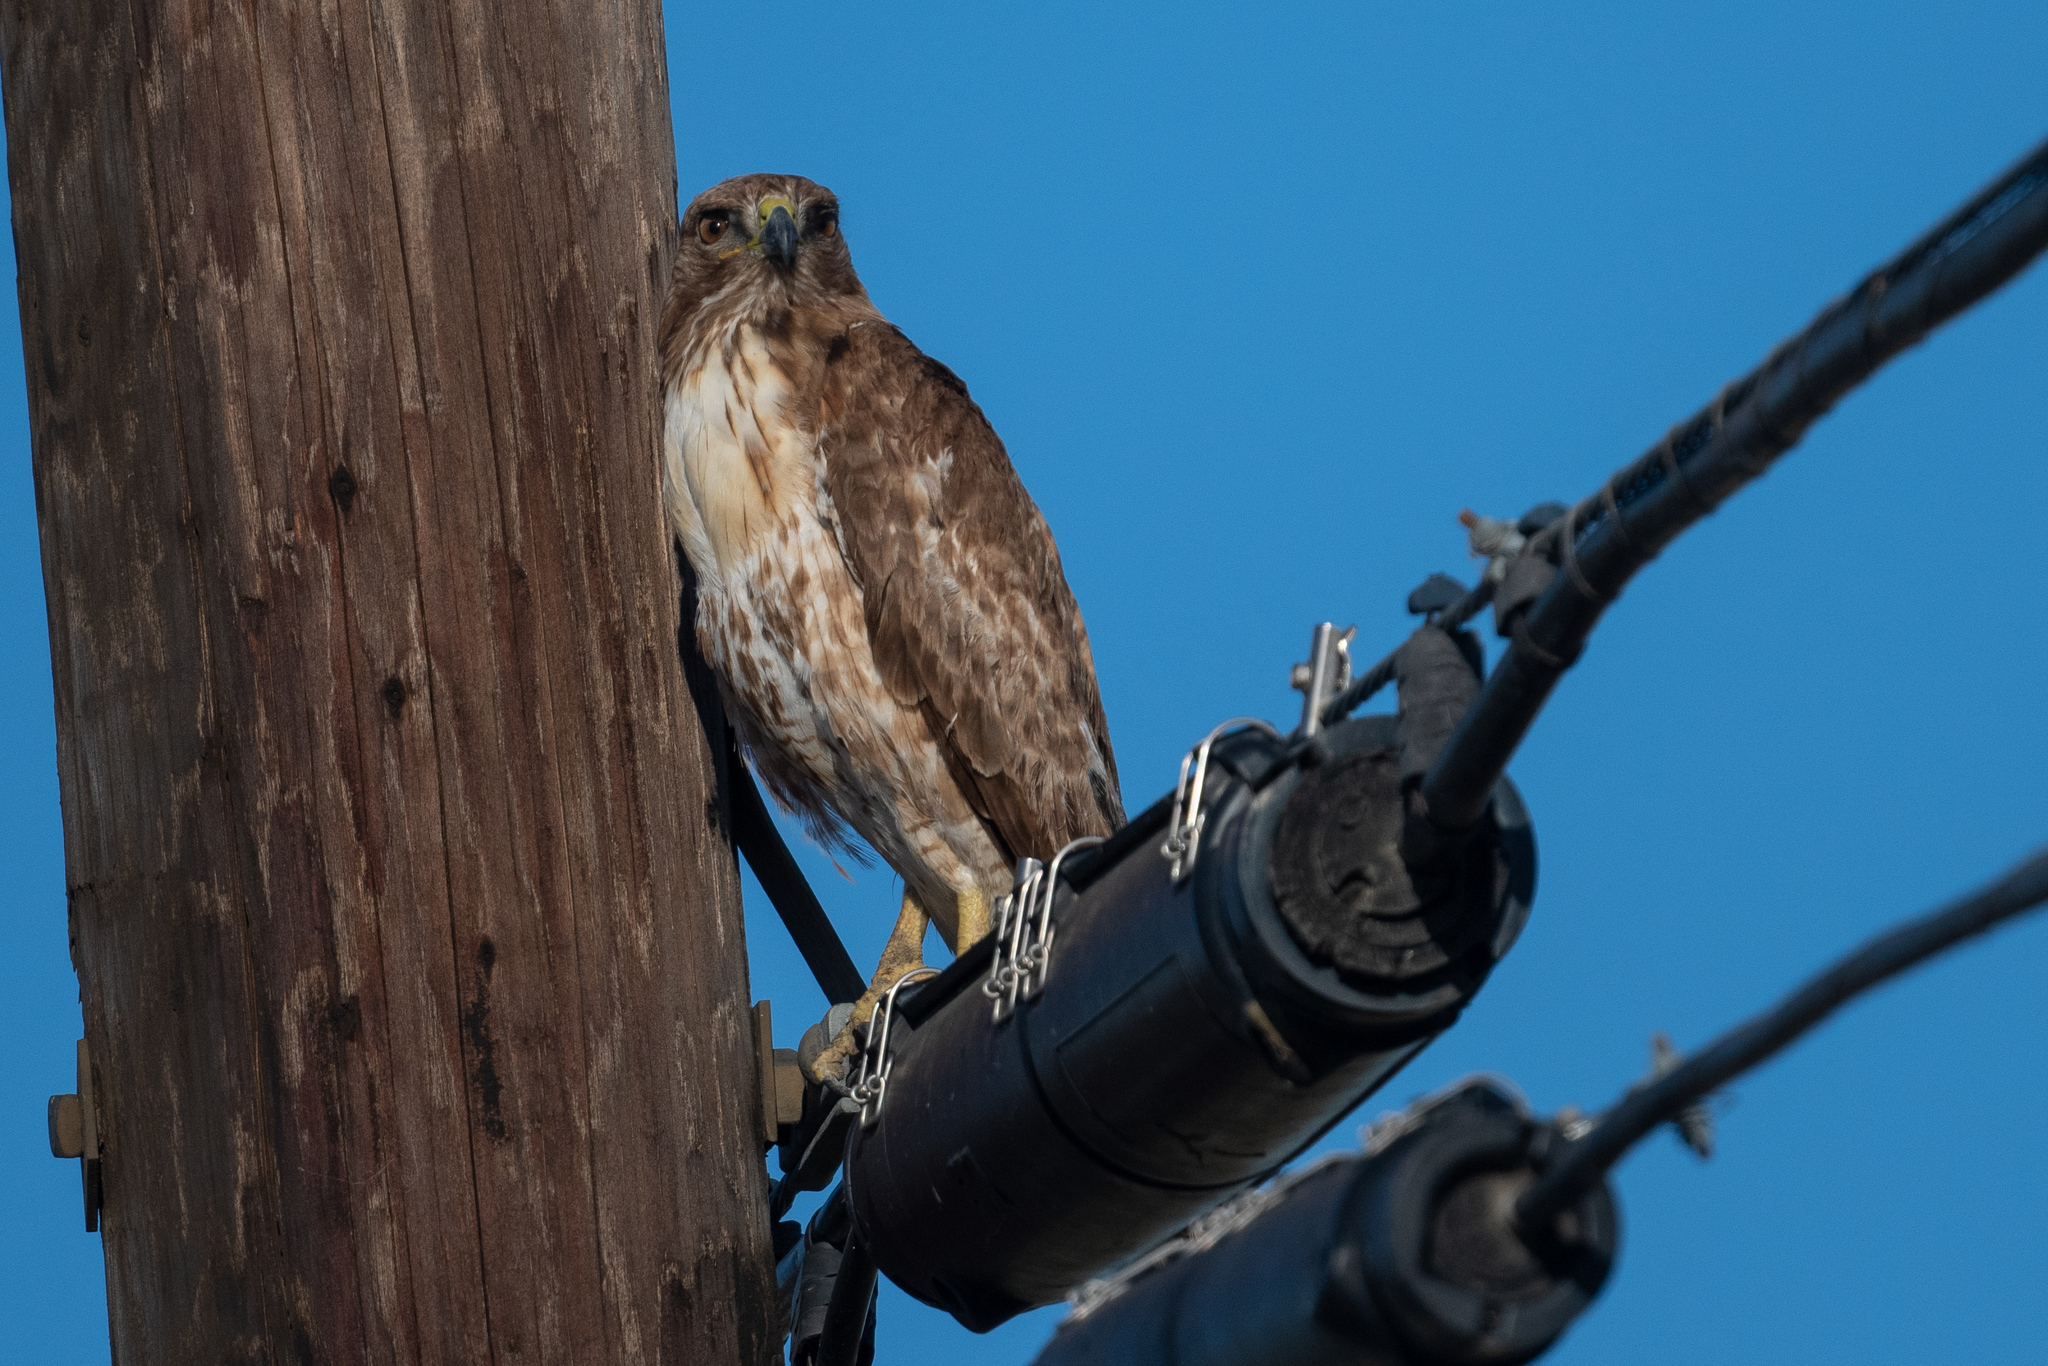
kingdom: Animalia
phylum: Chordata
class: Aves
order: Accipitriformes
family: Accipitridae
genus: Buteo
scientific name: Buteo jamaicensis
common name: Red-tailed hawk
